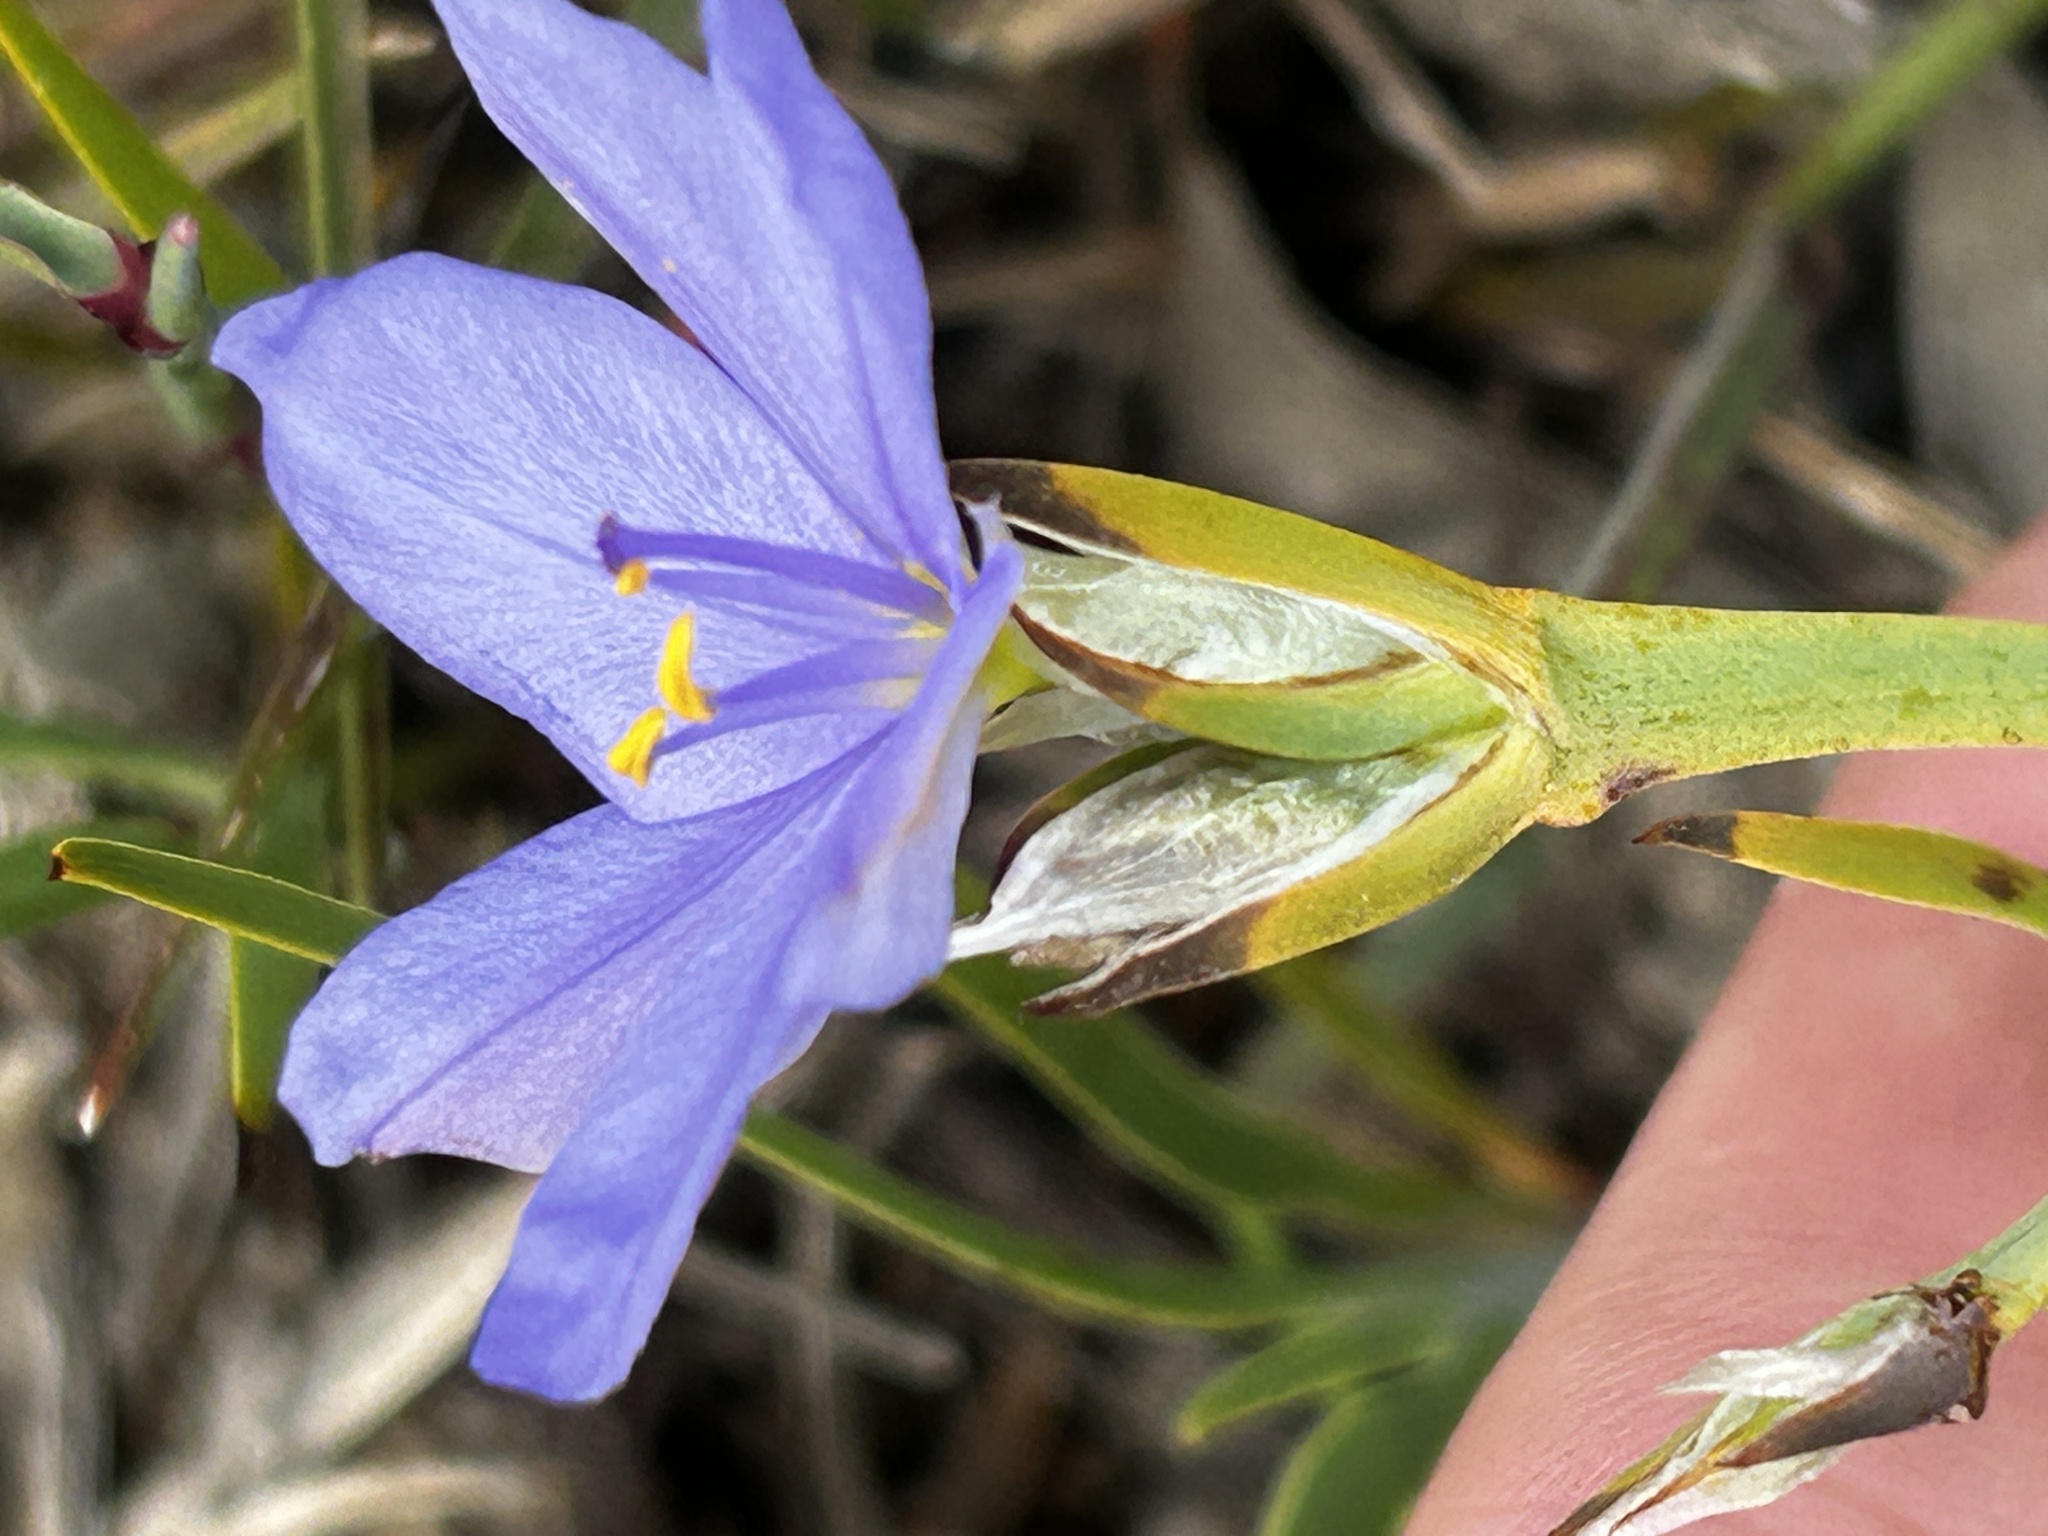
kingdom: Plantae
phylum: Tracheophyta
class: Liliopsida
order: Asparagales
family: Iridaceae
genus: Aristea
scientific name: Aristea pusilla
